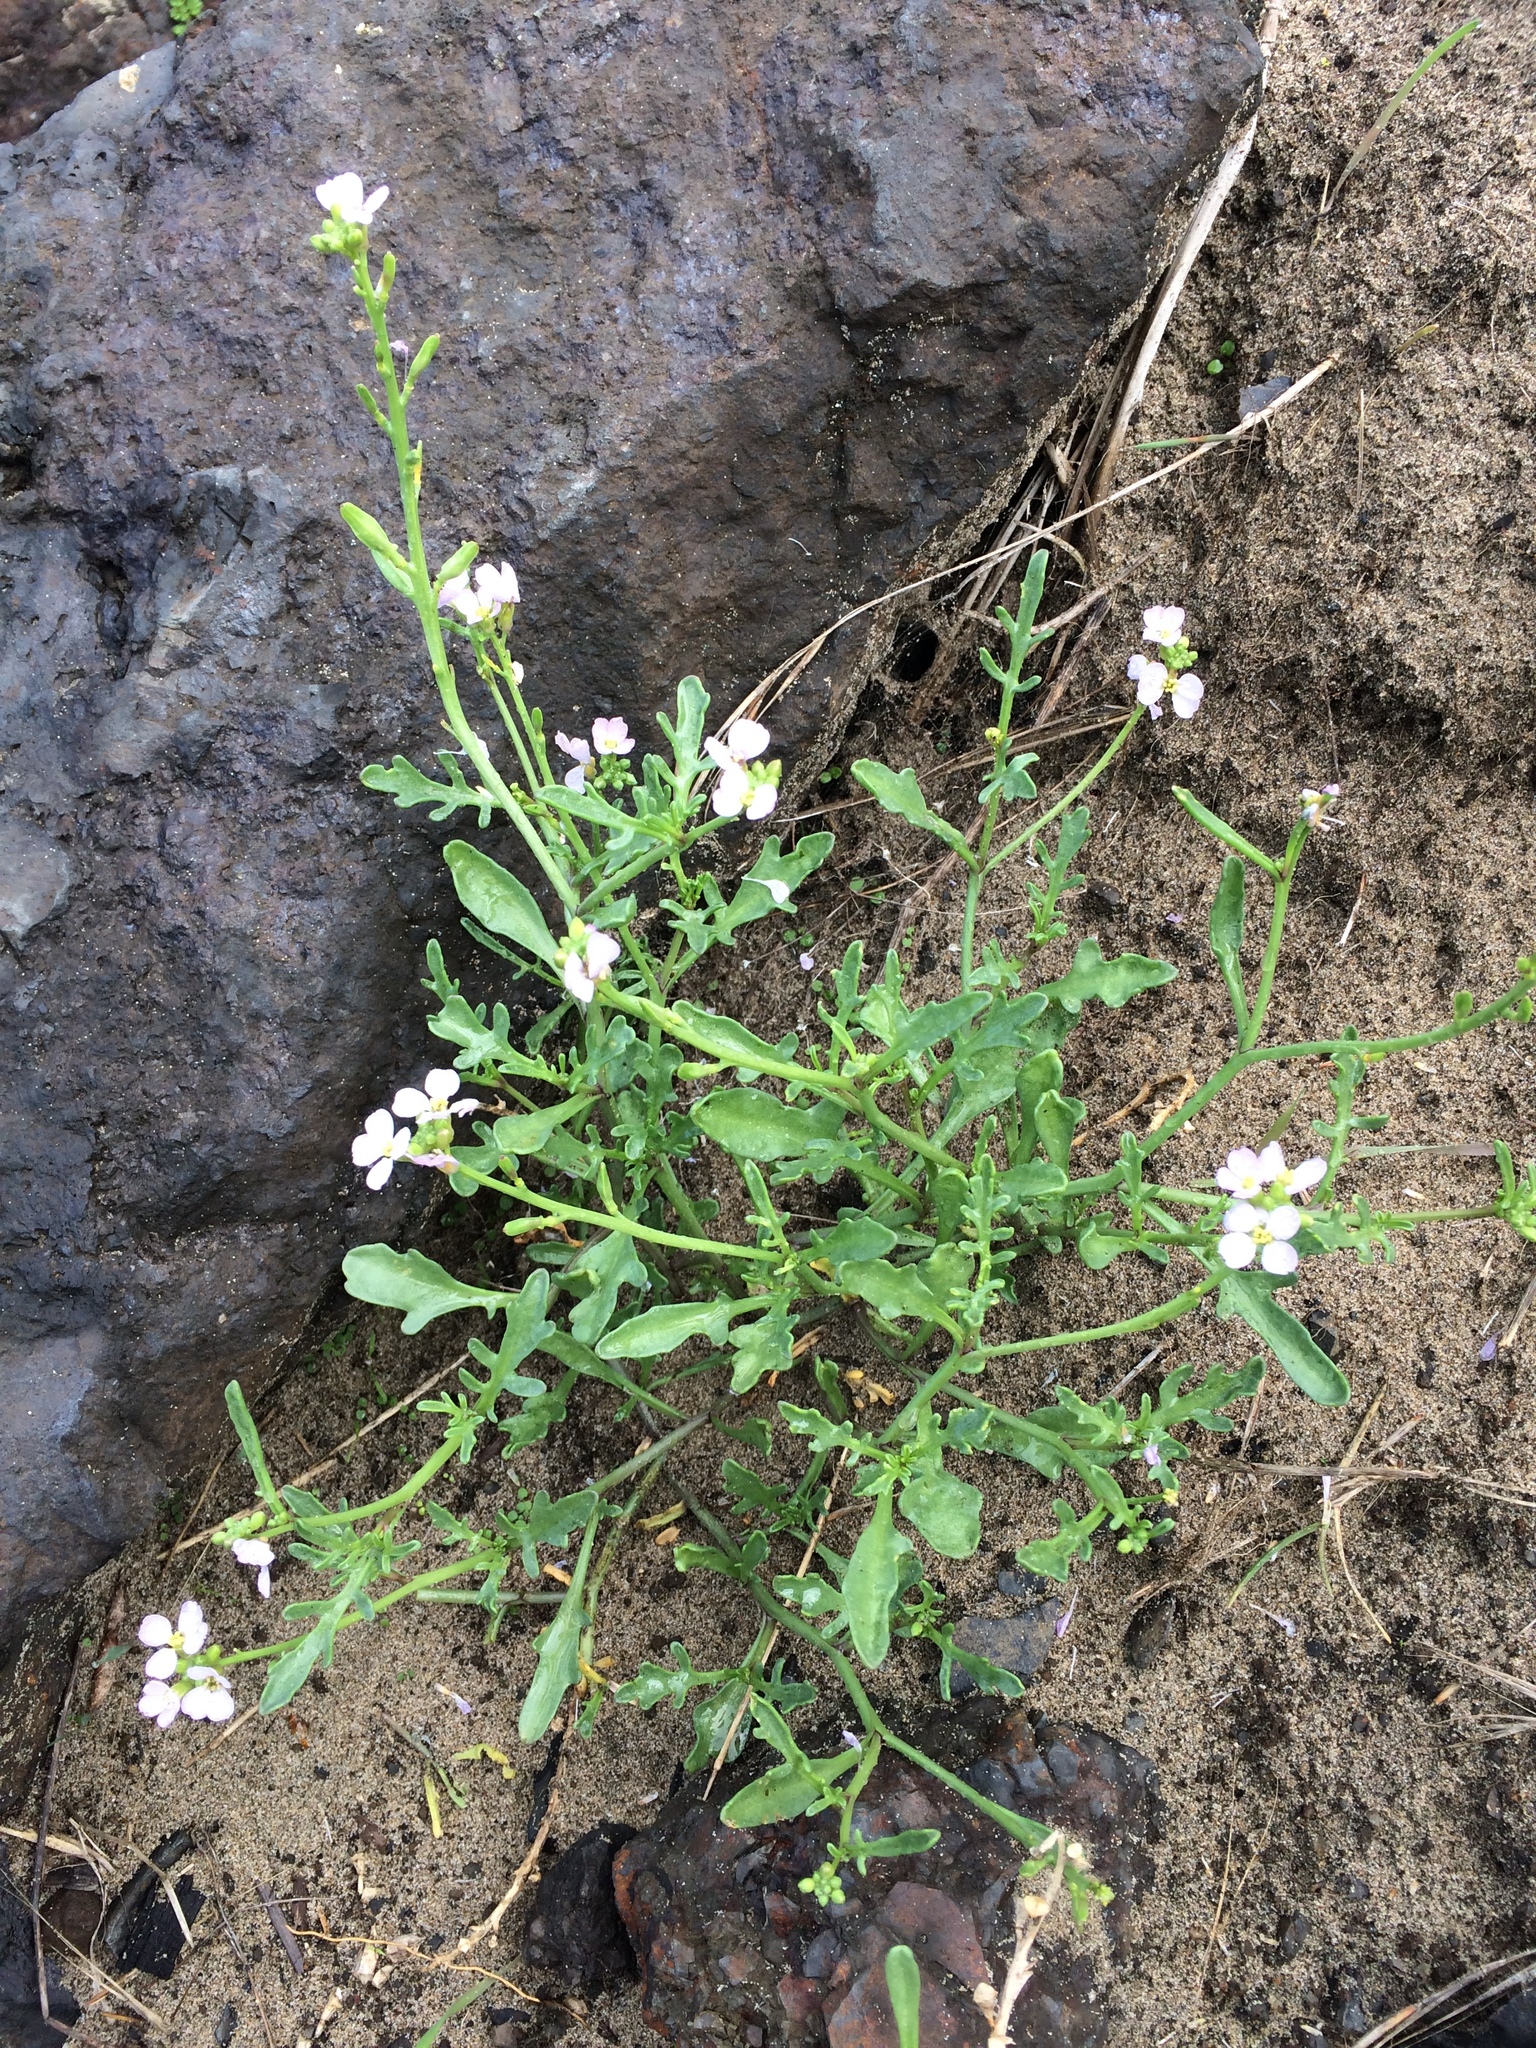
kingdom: Plantae
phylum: Tracheophyta
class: Magnoliopsida
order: Brassicales
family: Brassicaceae
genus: Cakile
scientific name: Cakile maritima
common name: Sea rocket
